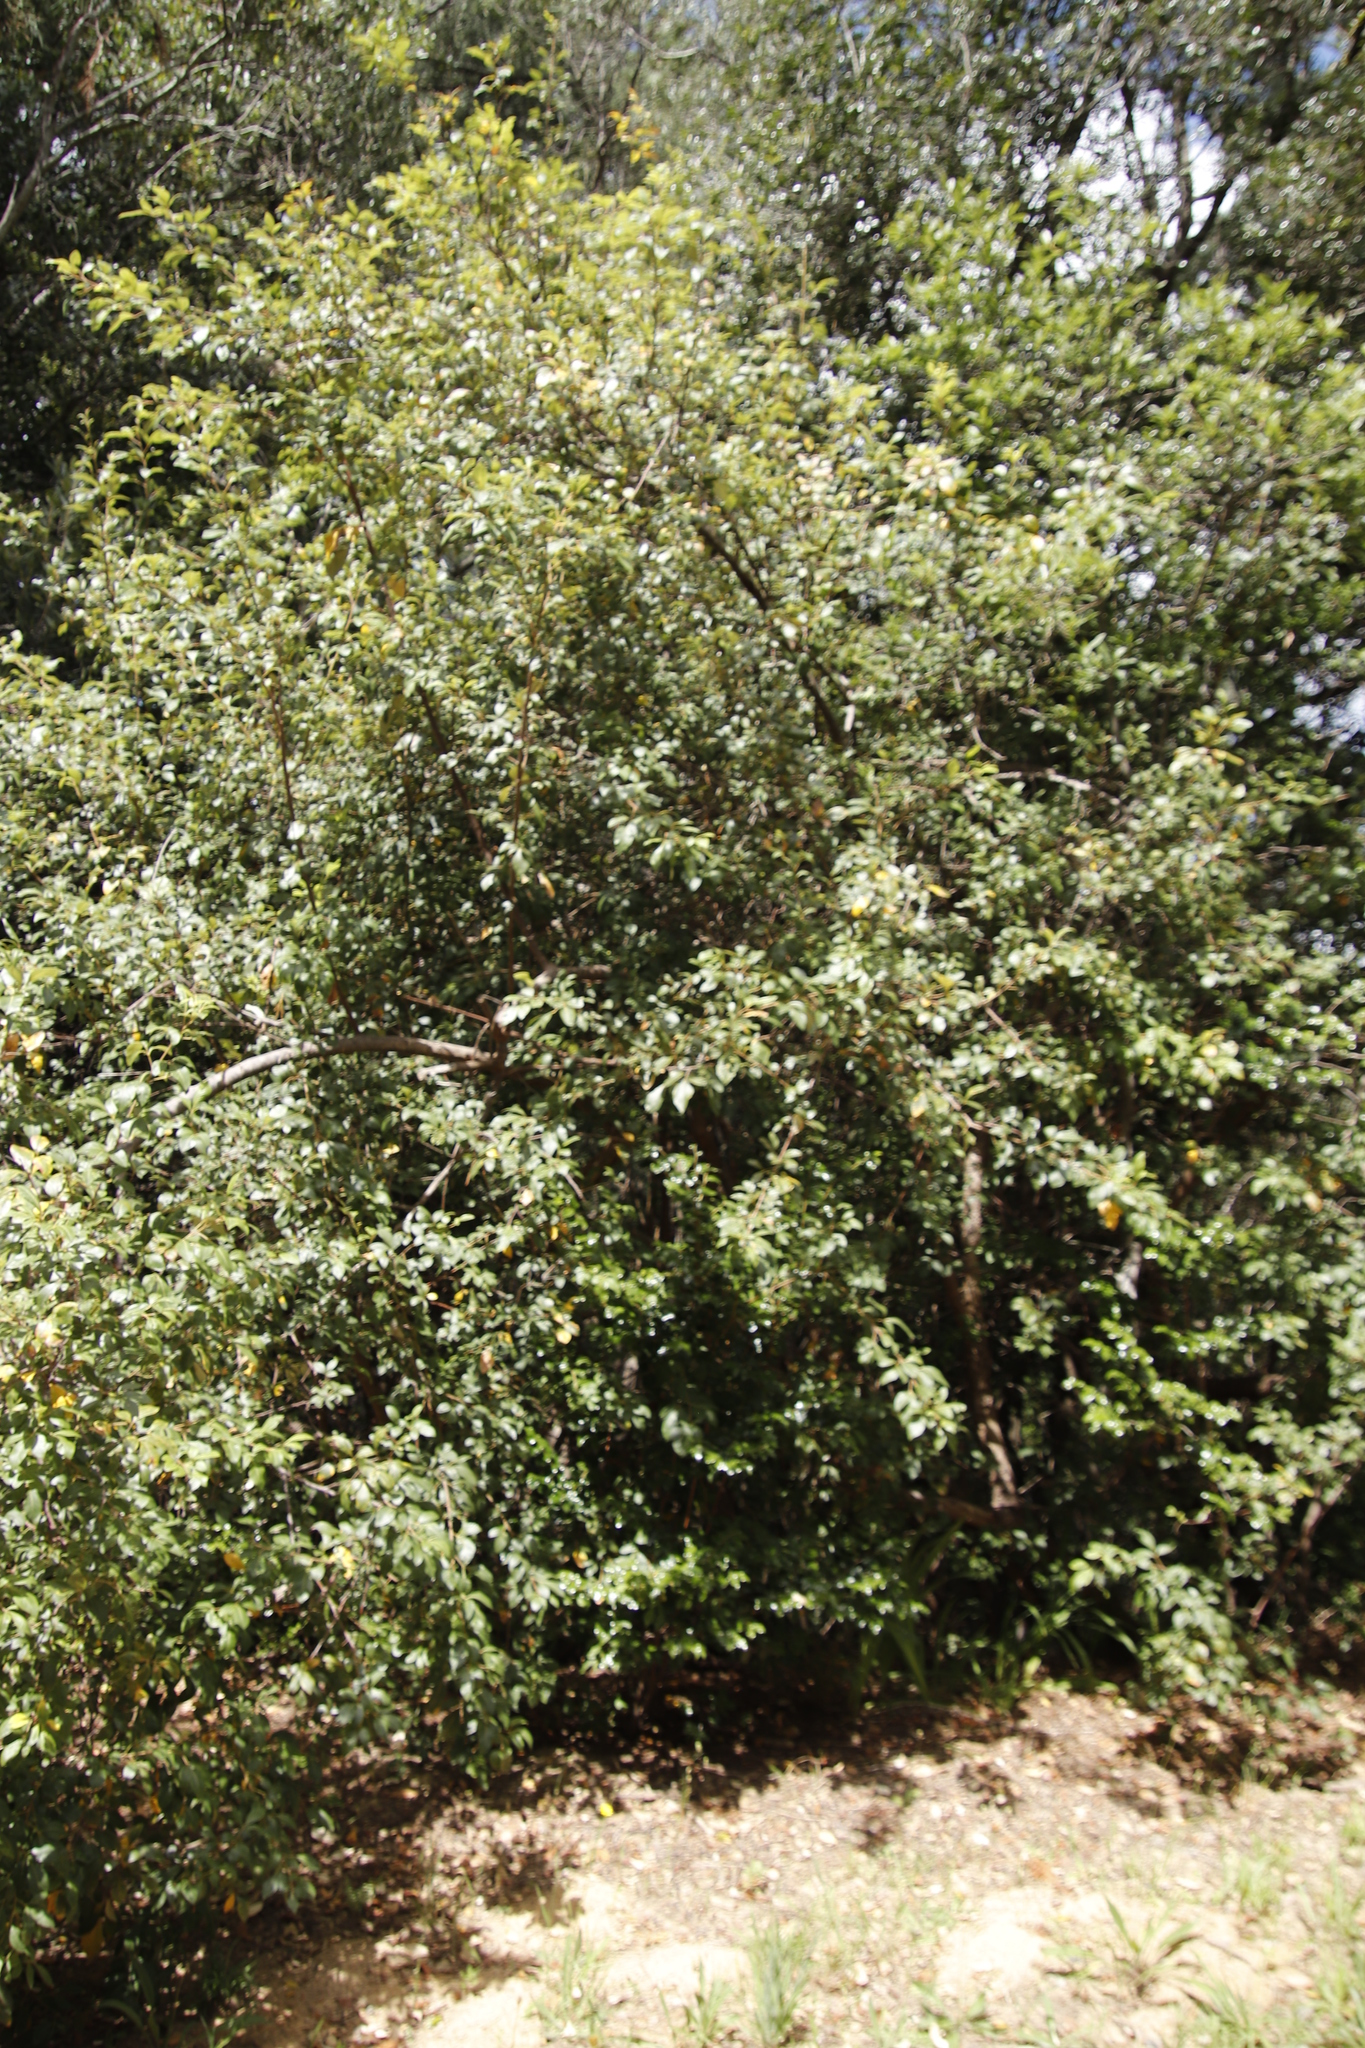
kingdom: Plantae
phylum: Tracheophyta
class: Magnoliopsida
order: Sapindales
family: Anacardiaceae
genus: Searsia
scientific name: Searsia tomentosa
